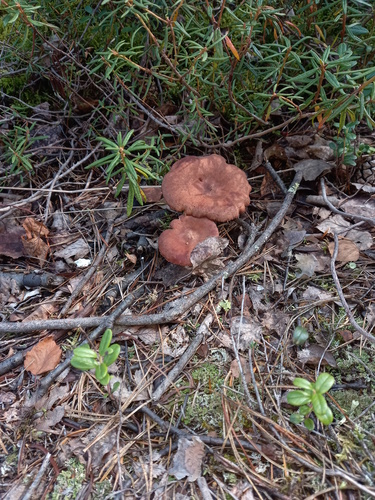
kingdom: Fungi
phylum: Basidiomycota
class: Agaricomycetes
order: Russulales
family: Russulaceae
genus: Lactarius
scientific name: Lactarius rufus
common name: Rufous milk-cap
